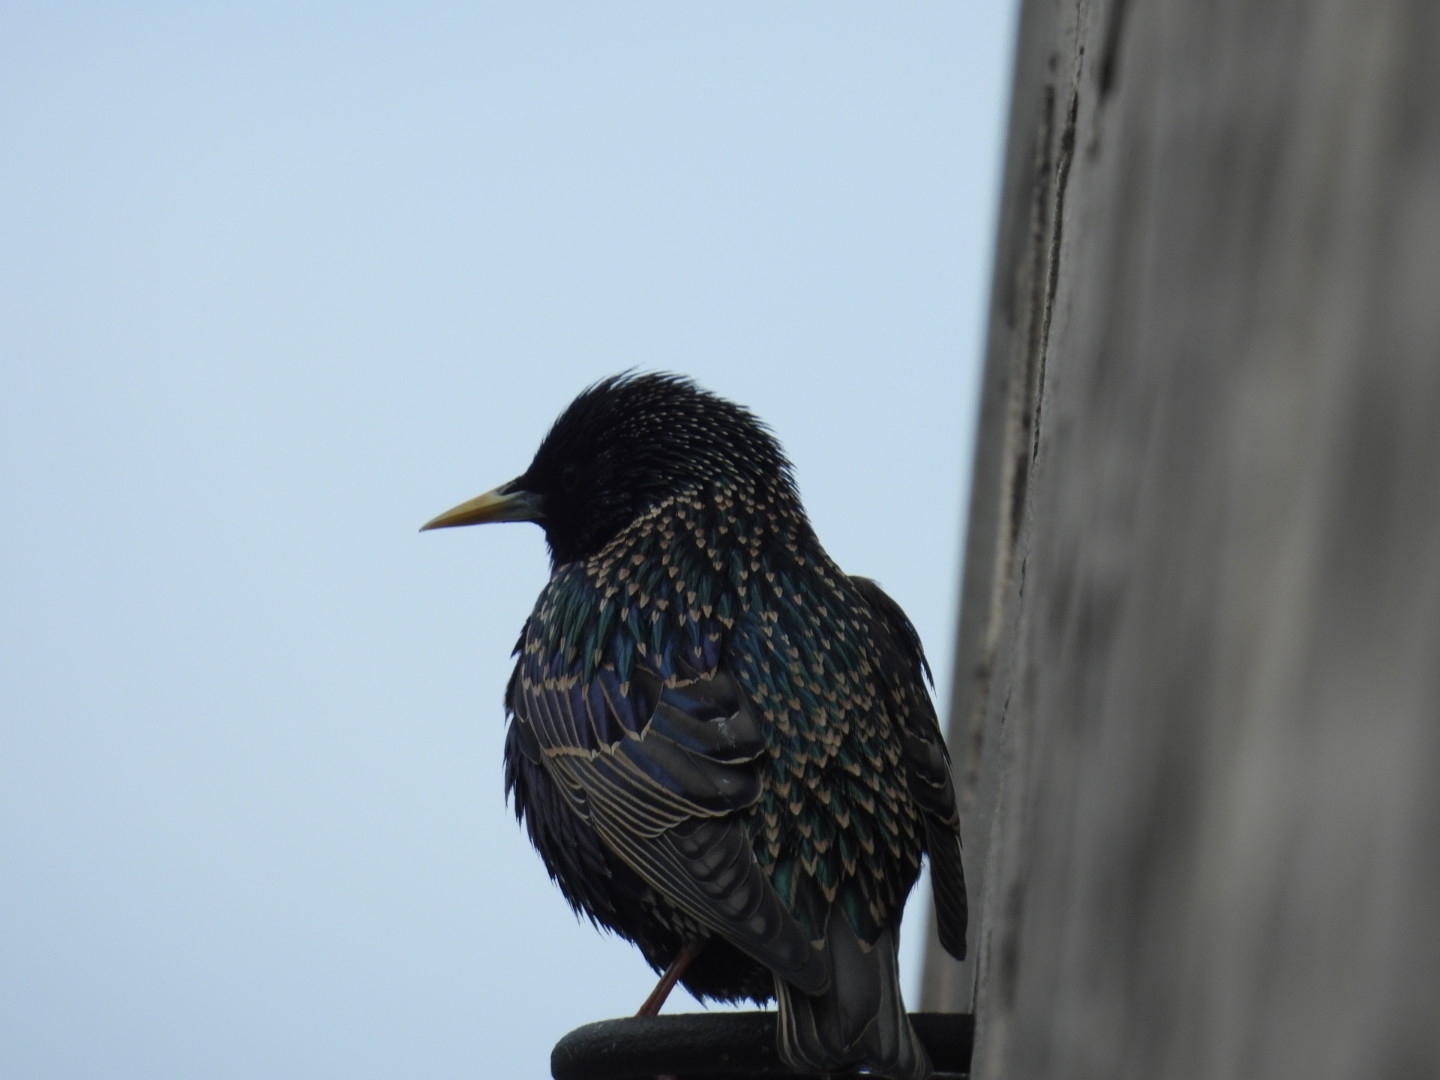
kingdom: Animalia
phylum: Chordata
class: Aves
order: Passeriformes
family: Sturnidae
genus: Sturnus
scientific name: Sturnus vulgaris
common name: Common starling
